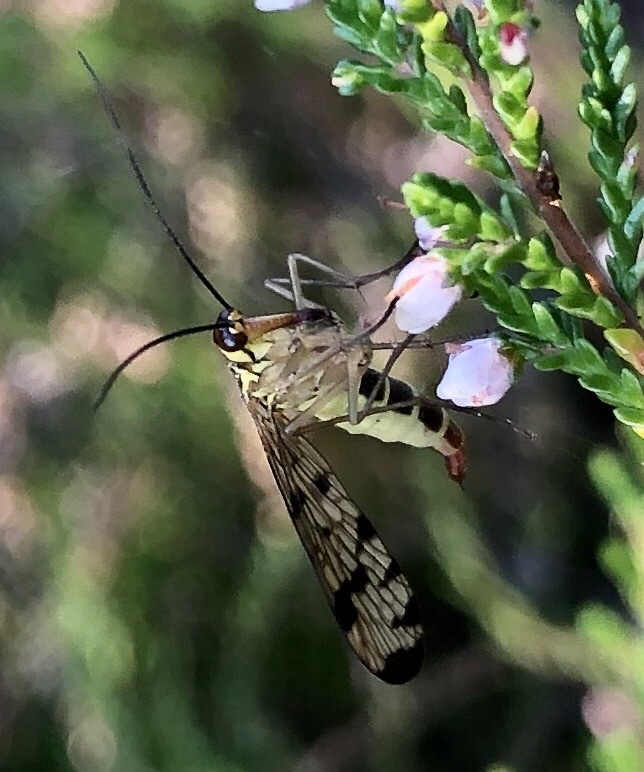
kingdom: Animalia
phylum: Arthropoda
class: Insecta
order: Mecoptera
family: Panorpidae
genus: Panorpa
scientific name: Panorpa germanica
